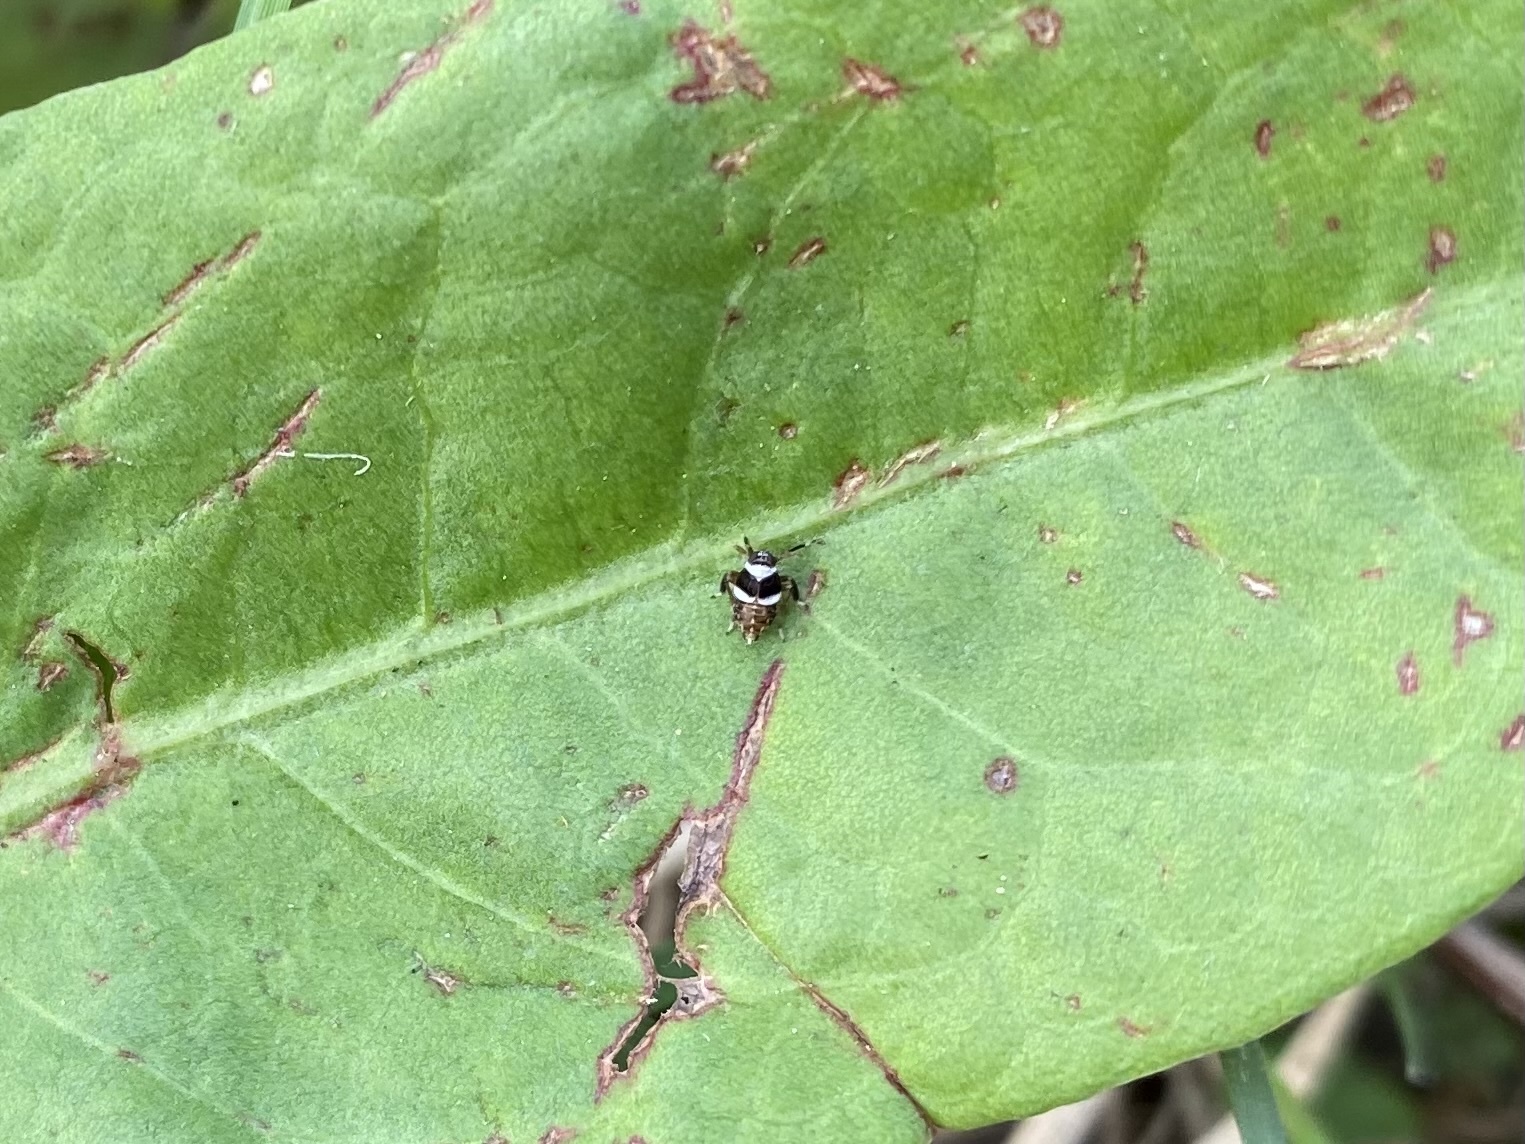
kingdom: Animalia
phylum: Arthropoda
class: Insecta
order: Hemiptera
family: Delphacidae
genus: Pissonotus
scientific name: Pissonotus flabellatus
